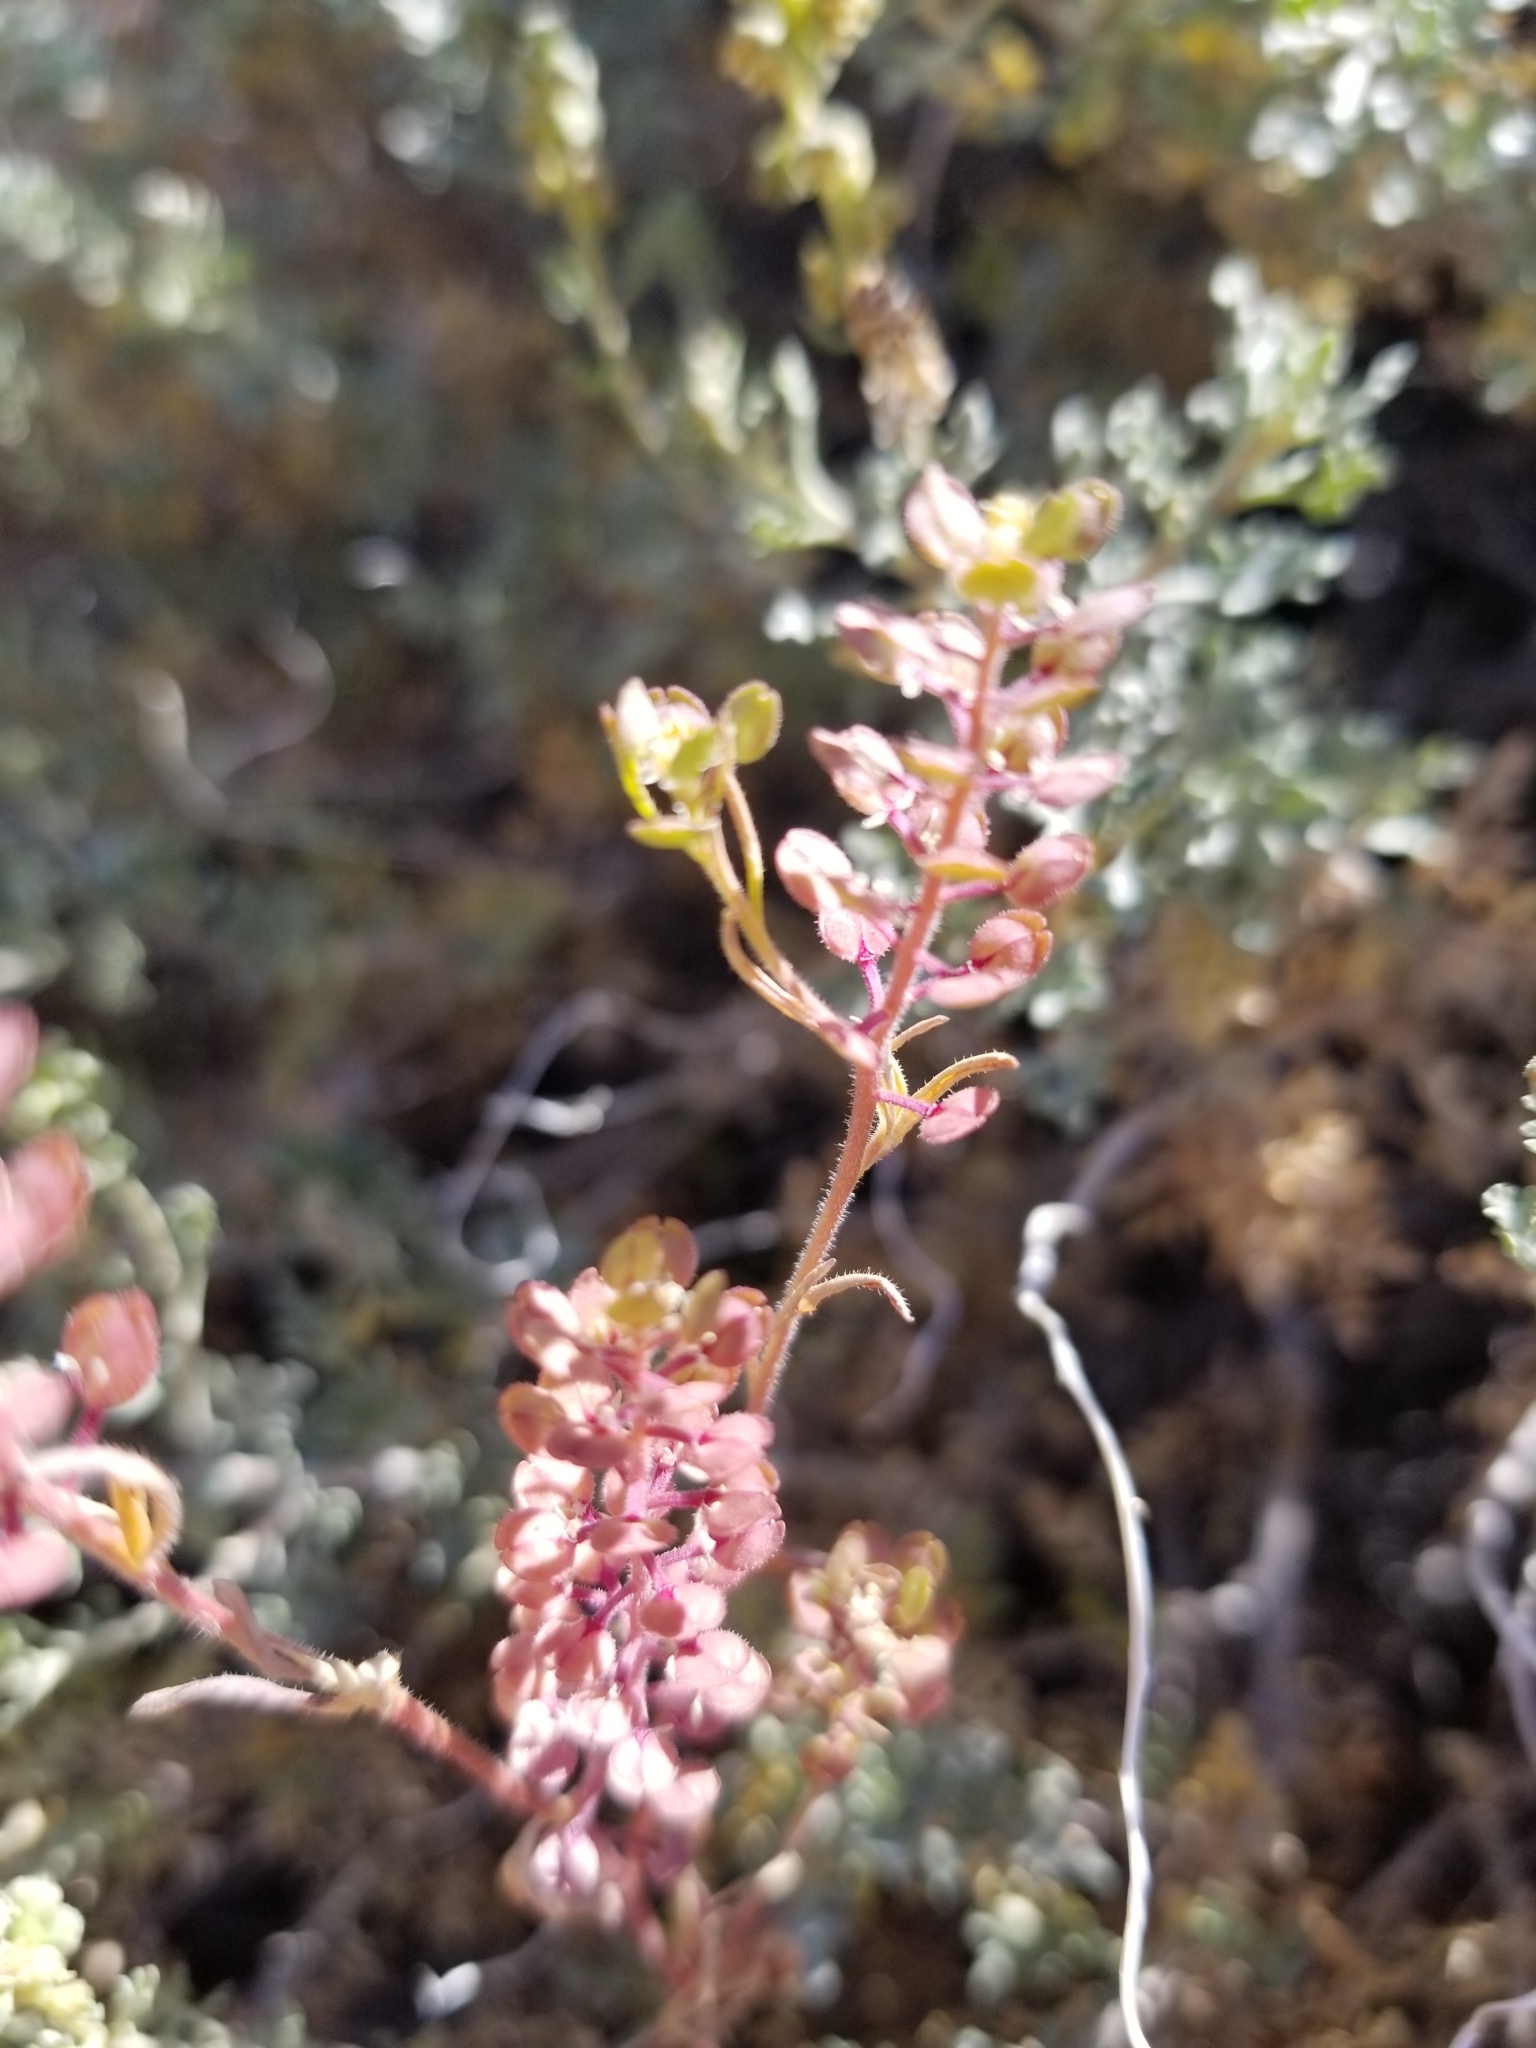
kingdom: Plantae
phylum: Tracheophyta
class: Magnoliopsida
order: Brassicales
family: Brassicaceae
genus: Lepidium
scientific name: Lepidium lasiocarpum
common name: Hairy-pod pepperwort
